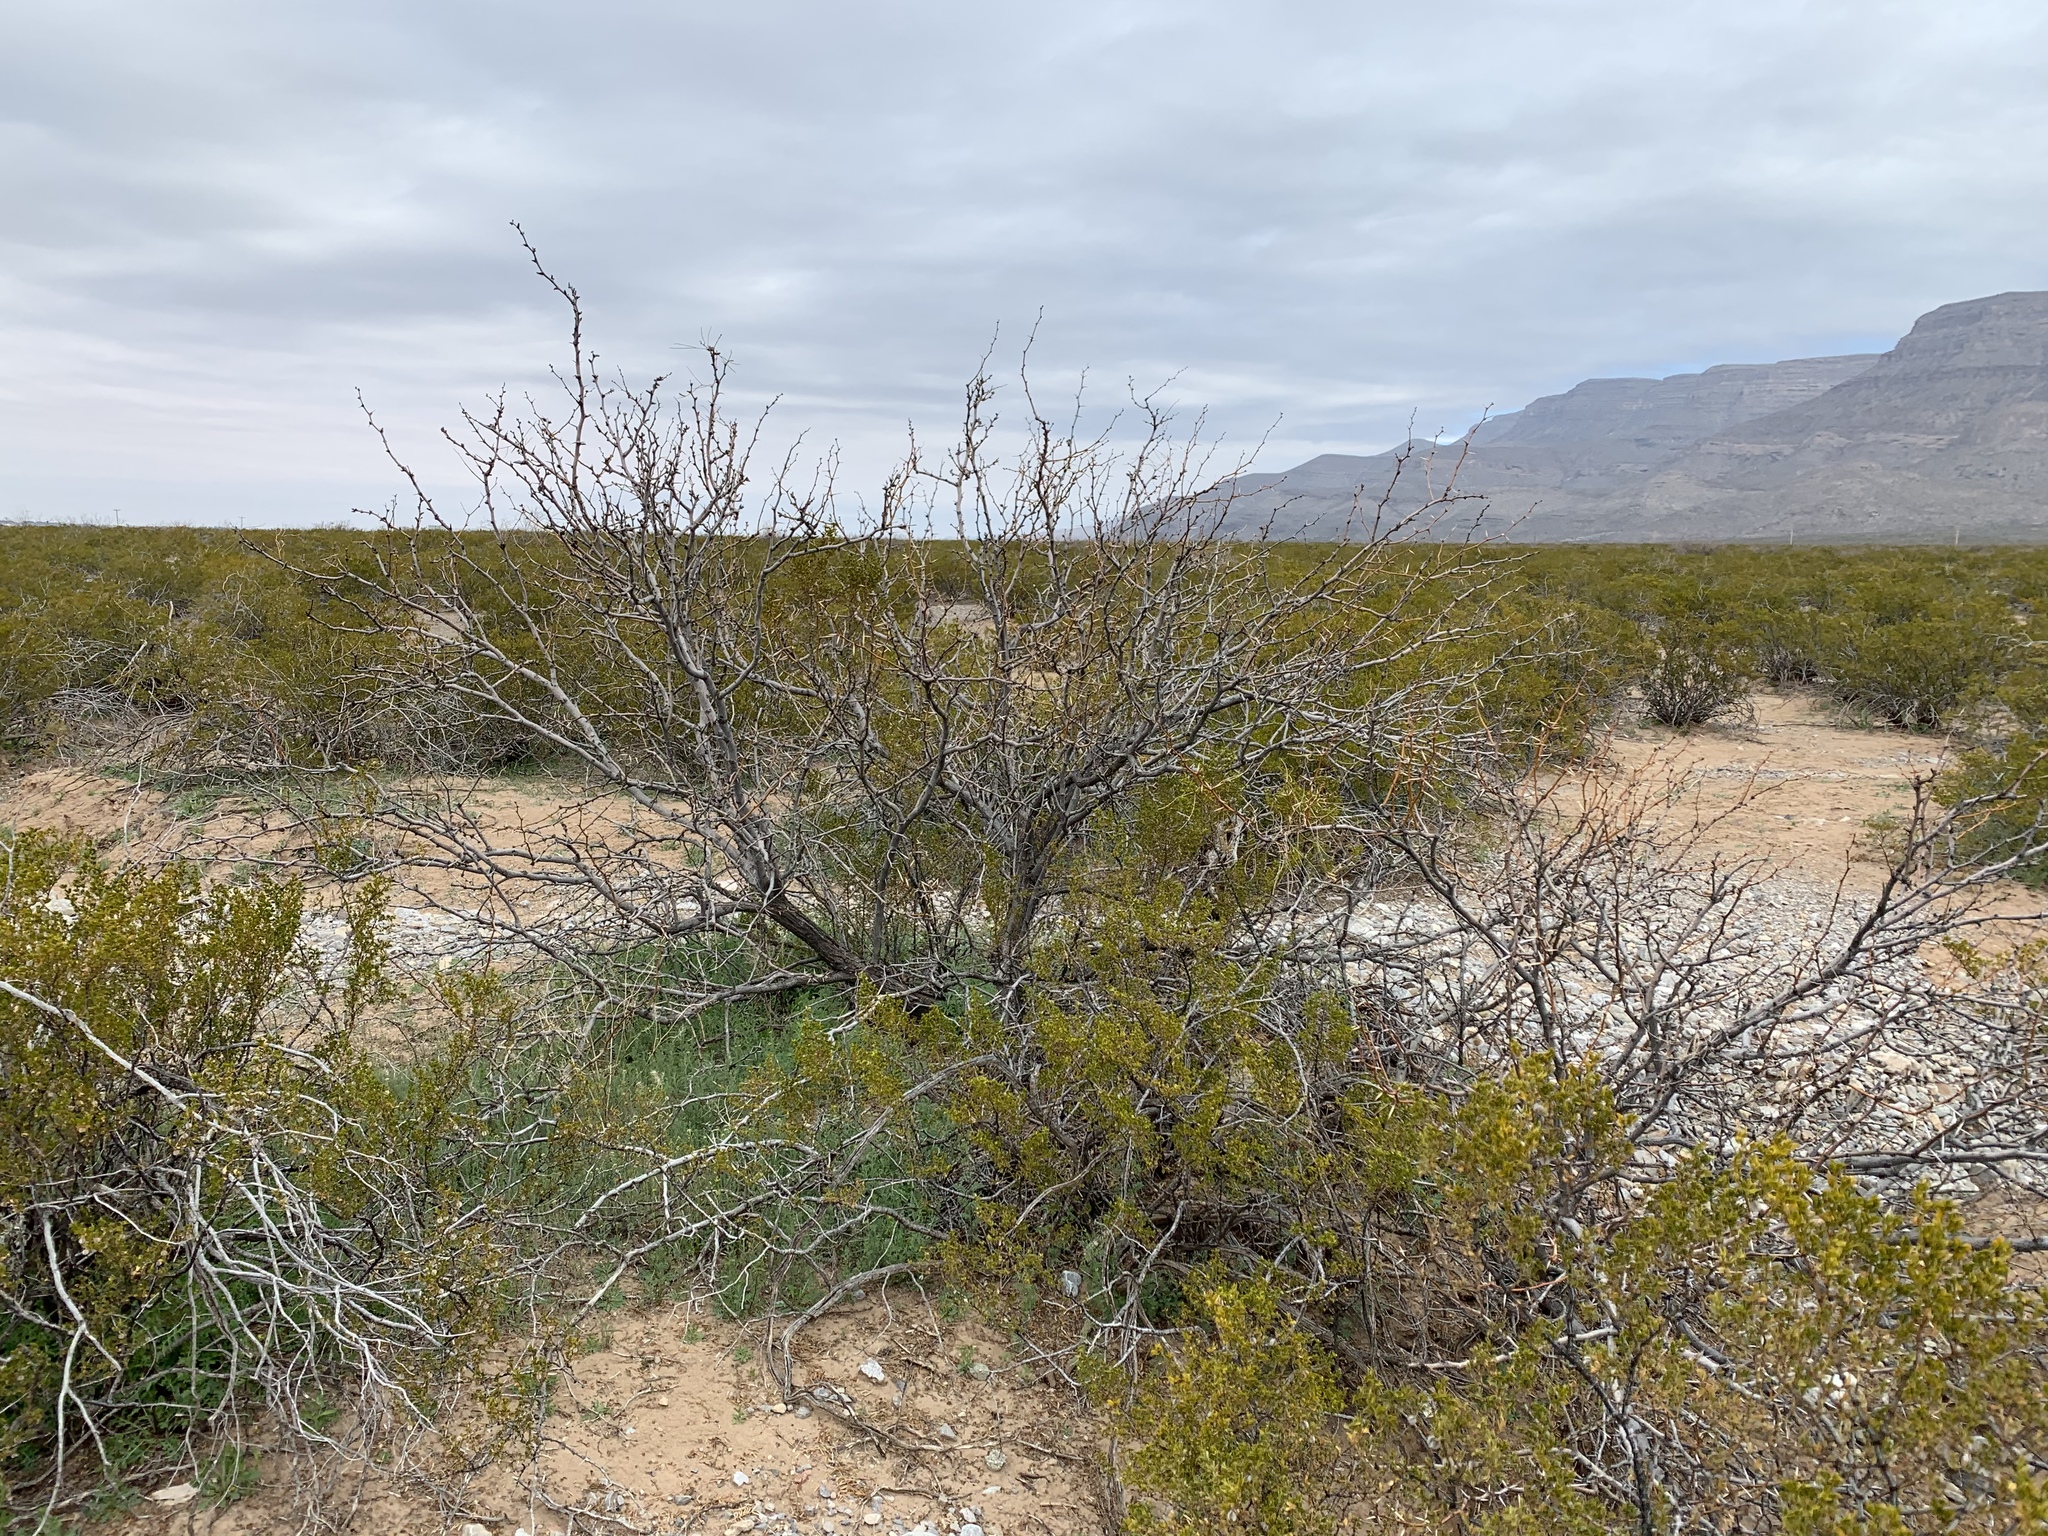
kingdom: Plantae
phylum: Tracheophyta
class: Magnoliopsida
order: Fabales
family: Fabaceae
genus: Prosopis
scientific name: Prosopis glandulosa
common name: Honey mesquite
